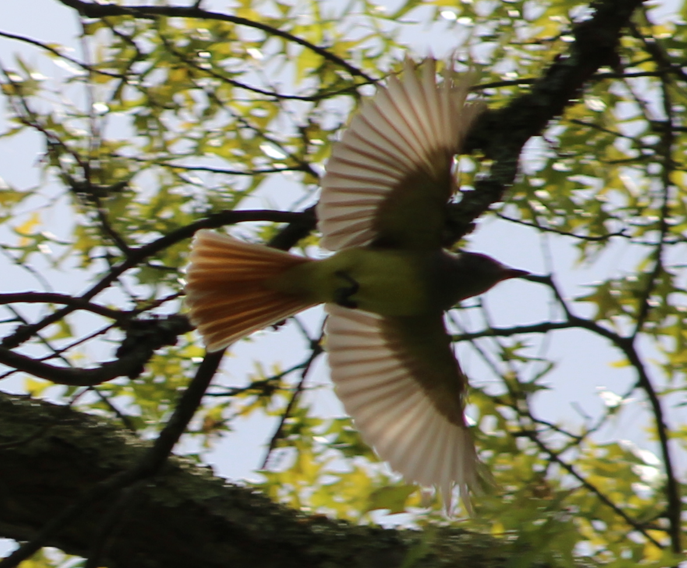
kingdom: Animalia
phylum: Chordata
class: Aves
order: Passeriformes
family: Tyrannidae
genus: Myiarchus
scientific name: Myiarchus crinitus
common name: Great crested flycatcher
